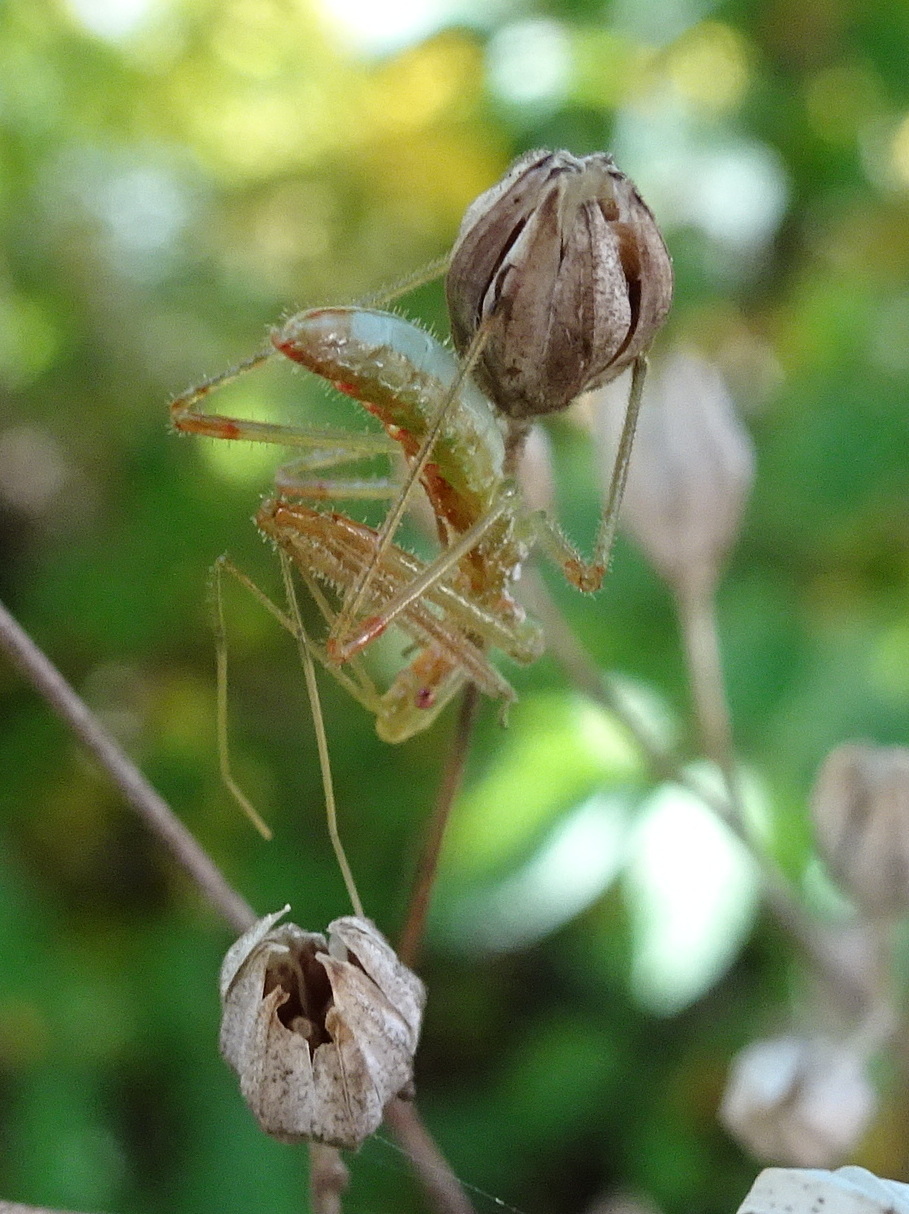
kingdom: Animalia
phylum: Arthropoda
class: Insecta
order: Hemiptera
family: Reduviidae
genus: Zelus
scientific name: Zelus luridus
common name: Pale green assassin bug
